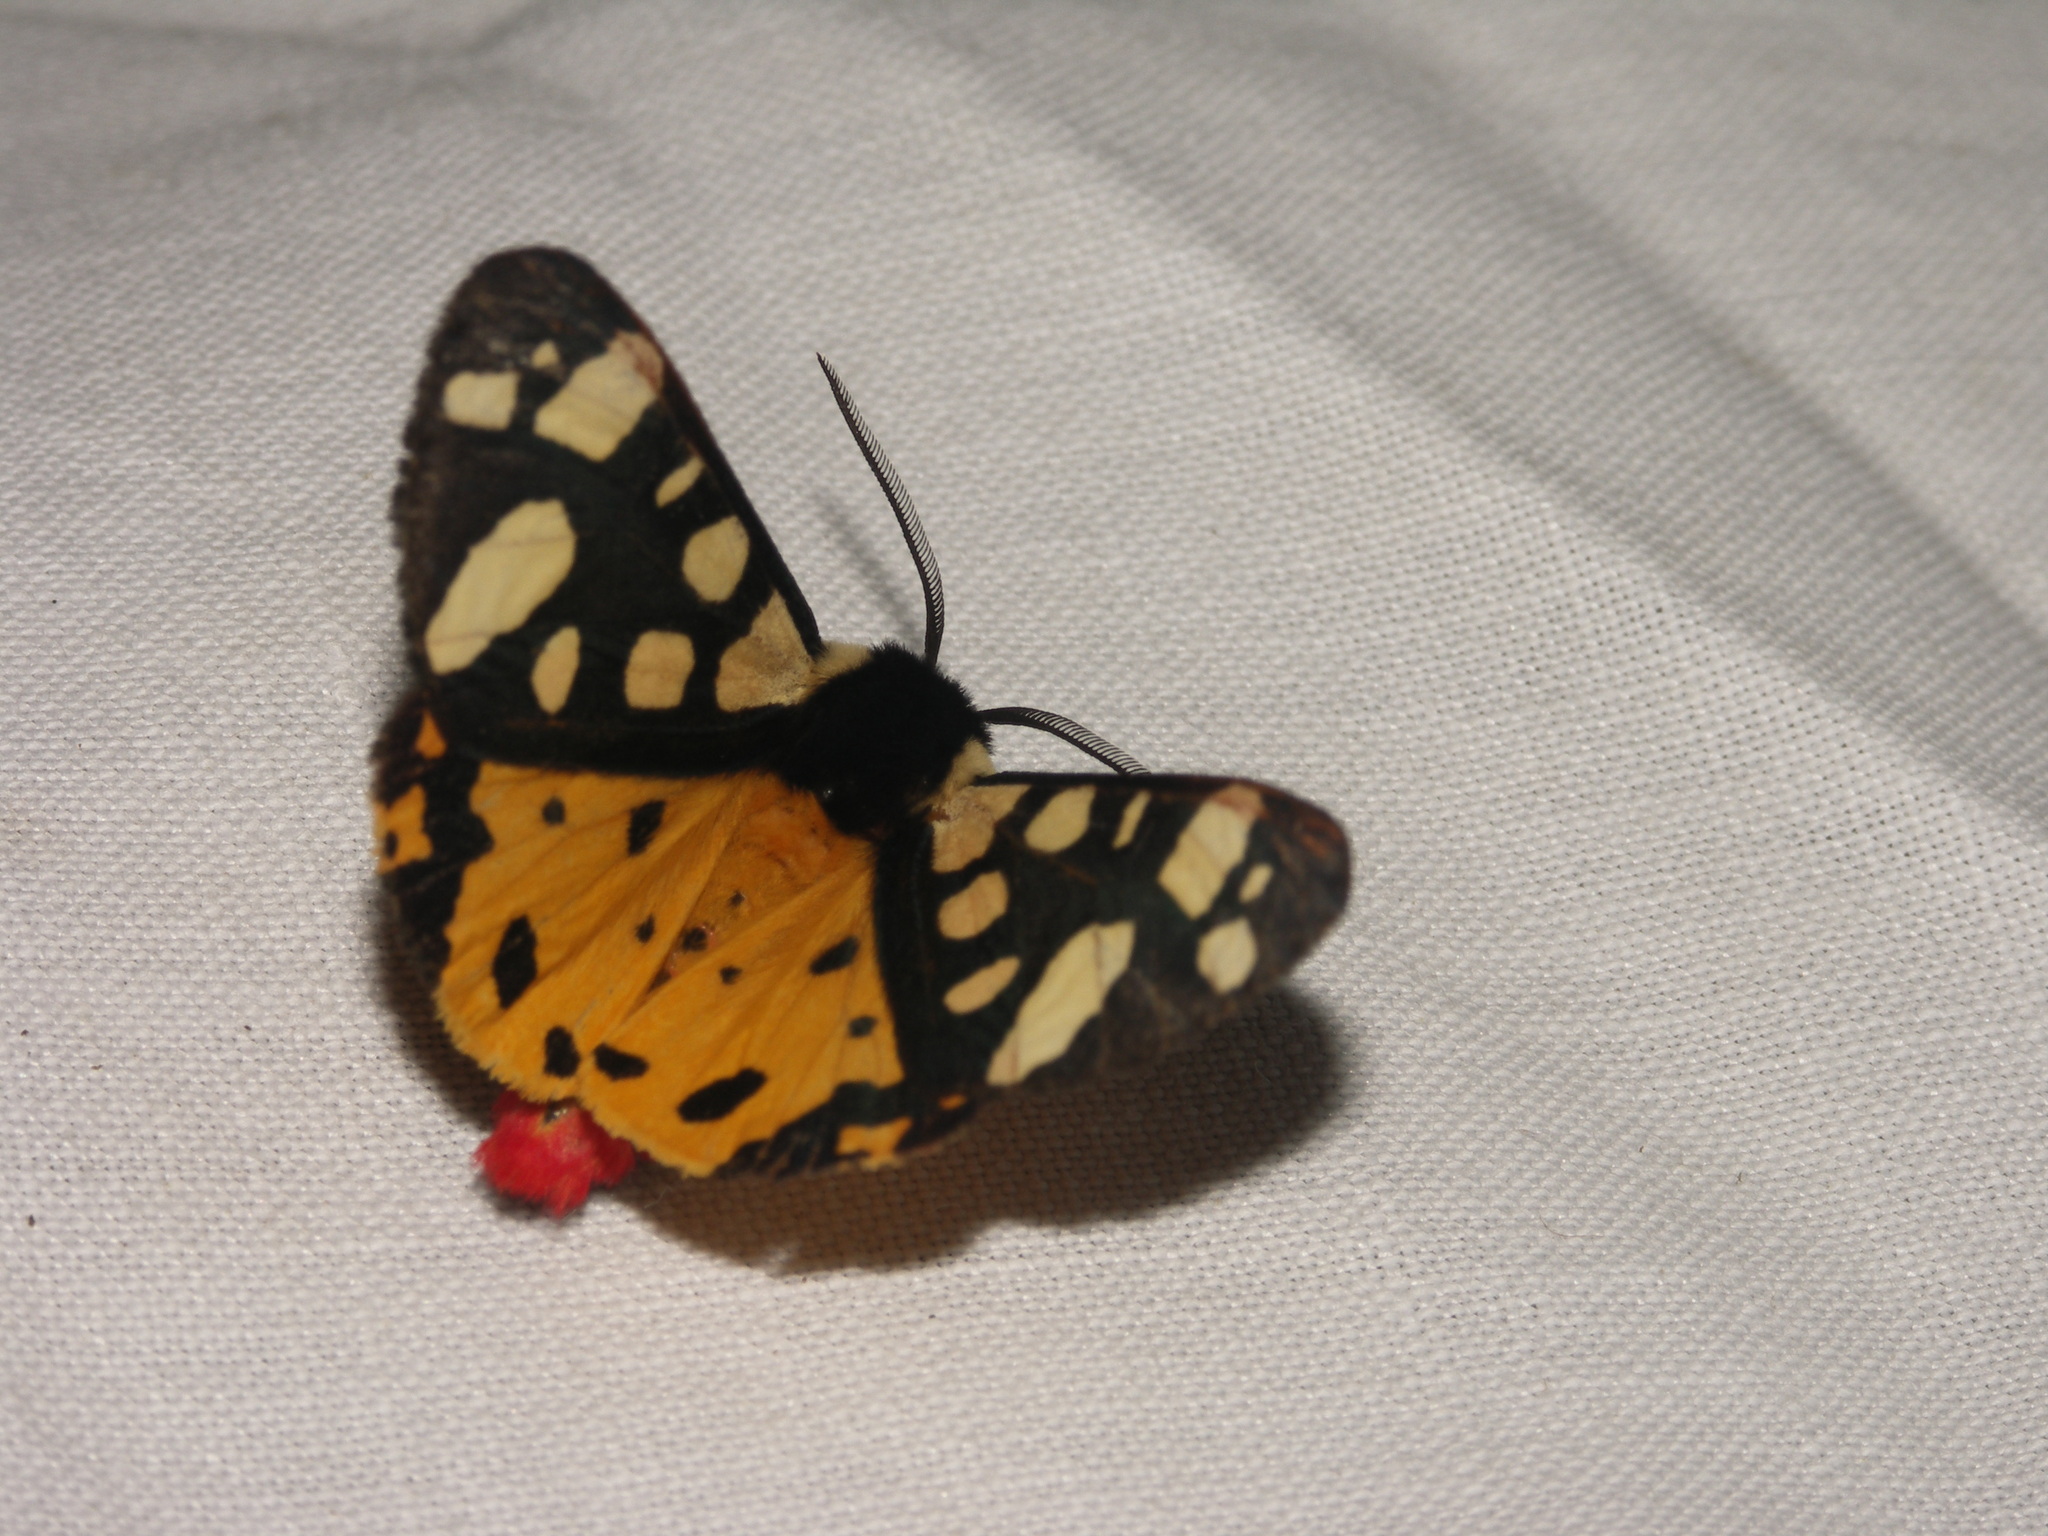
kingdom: Animalia
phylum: Arthropoda
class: Insecta
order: Lepidoptera
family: Erebidae
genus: Epicallia
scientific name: Epicallia villica
